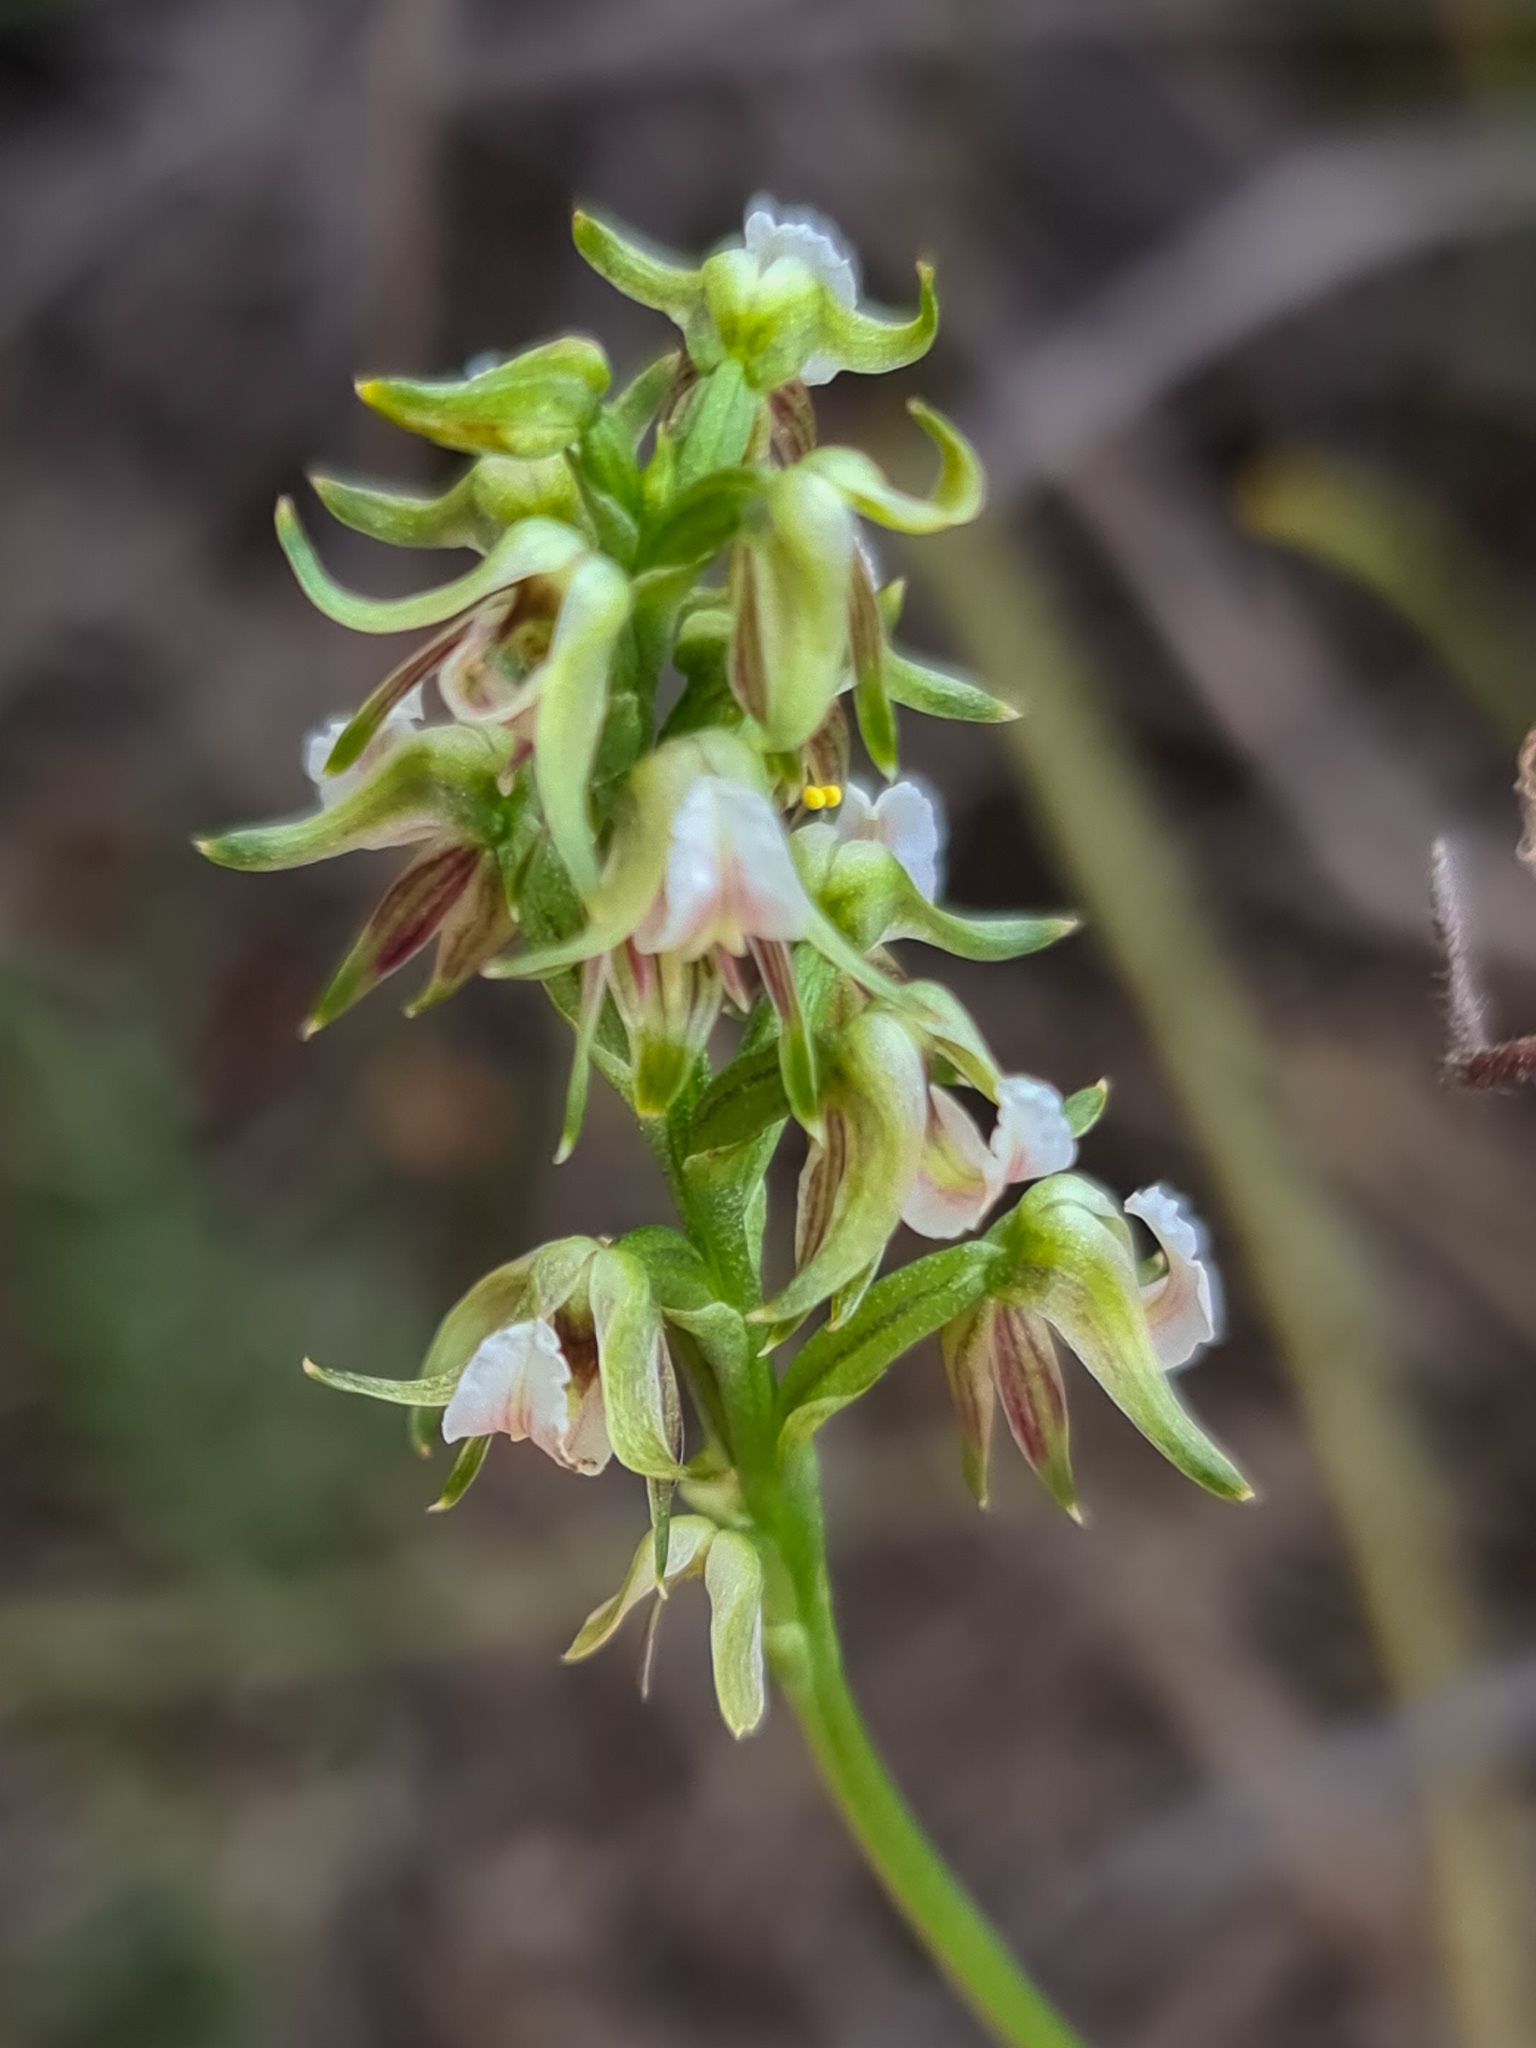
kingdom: Plantae
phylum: Tracheophyta
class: Liliopsida
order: Asparagales
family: Orchidaceae
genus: Prasophyllum
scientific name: Prasophyllum parvifolium
